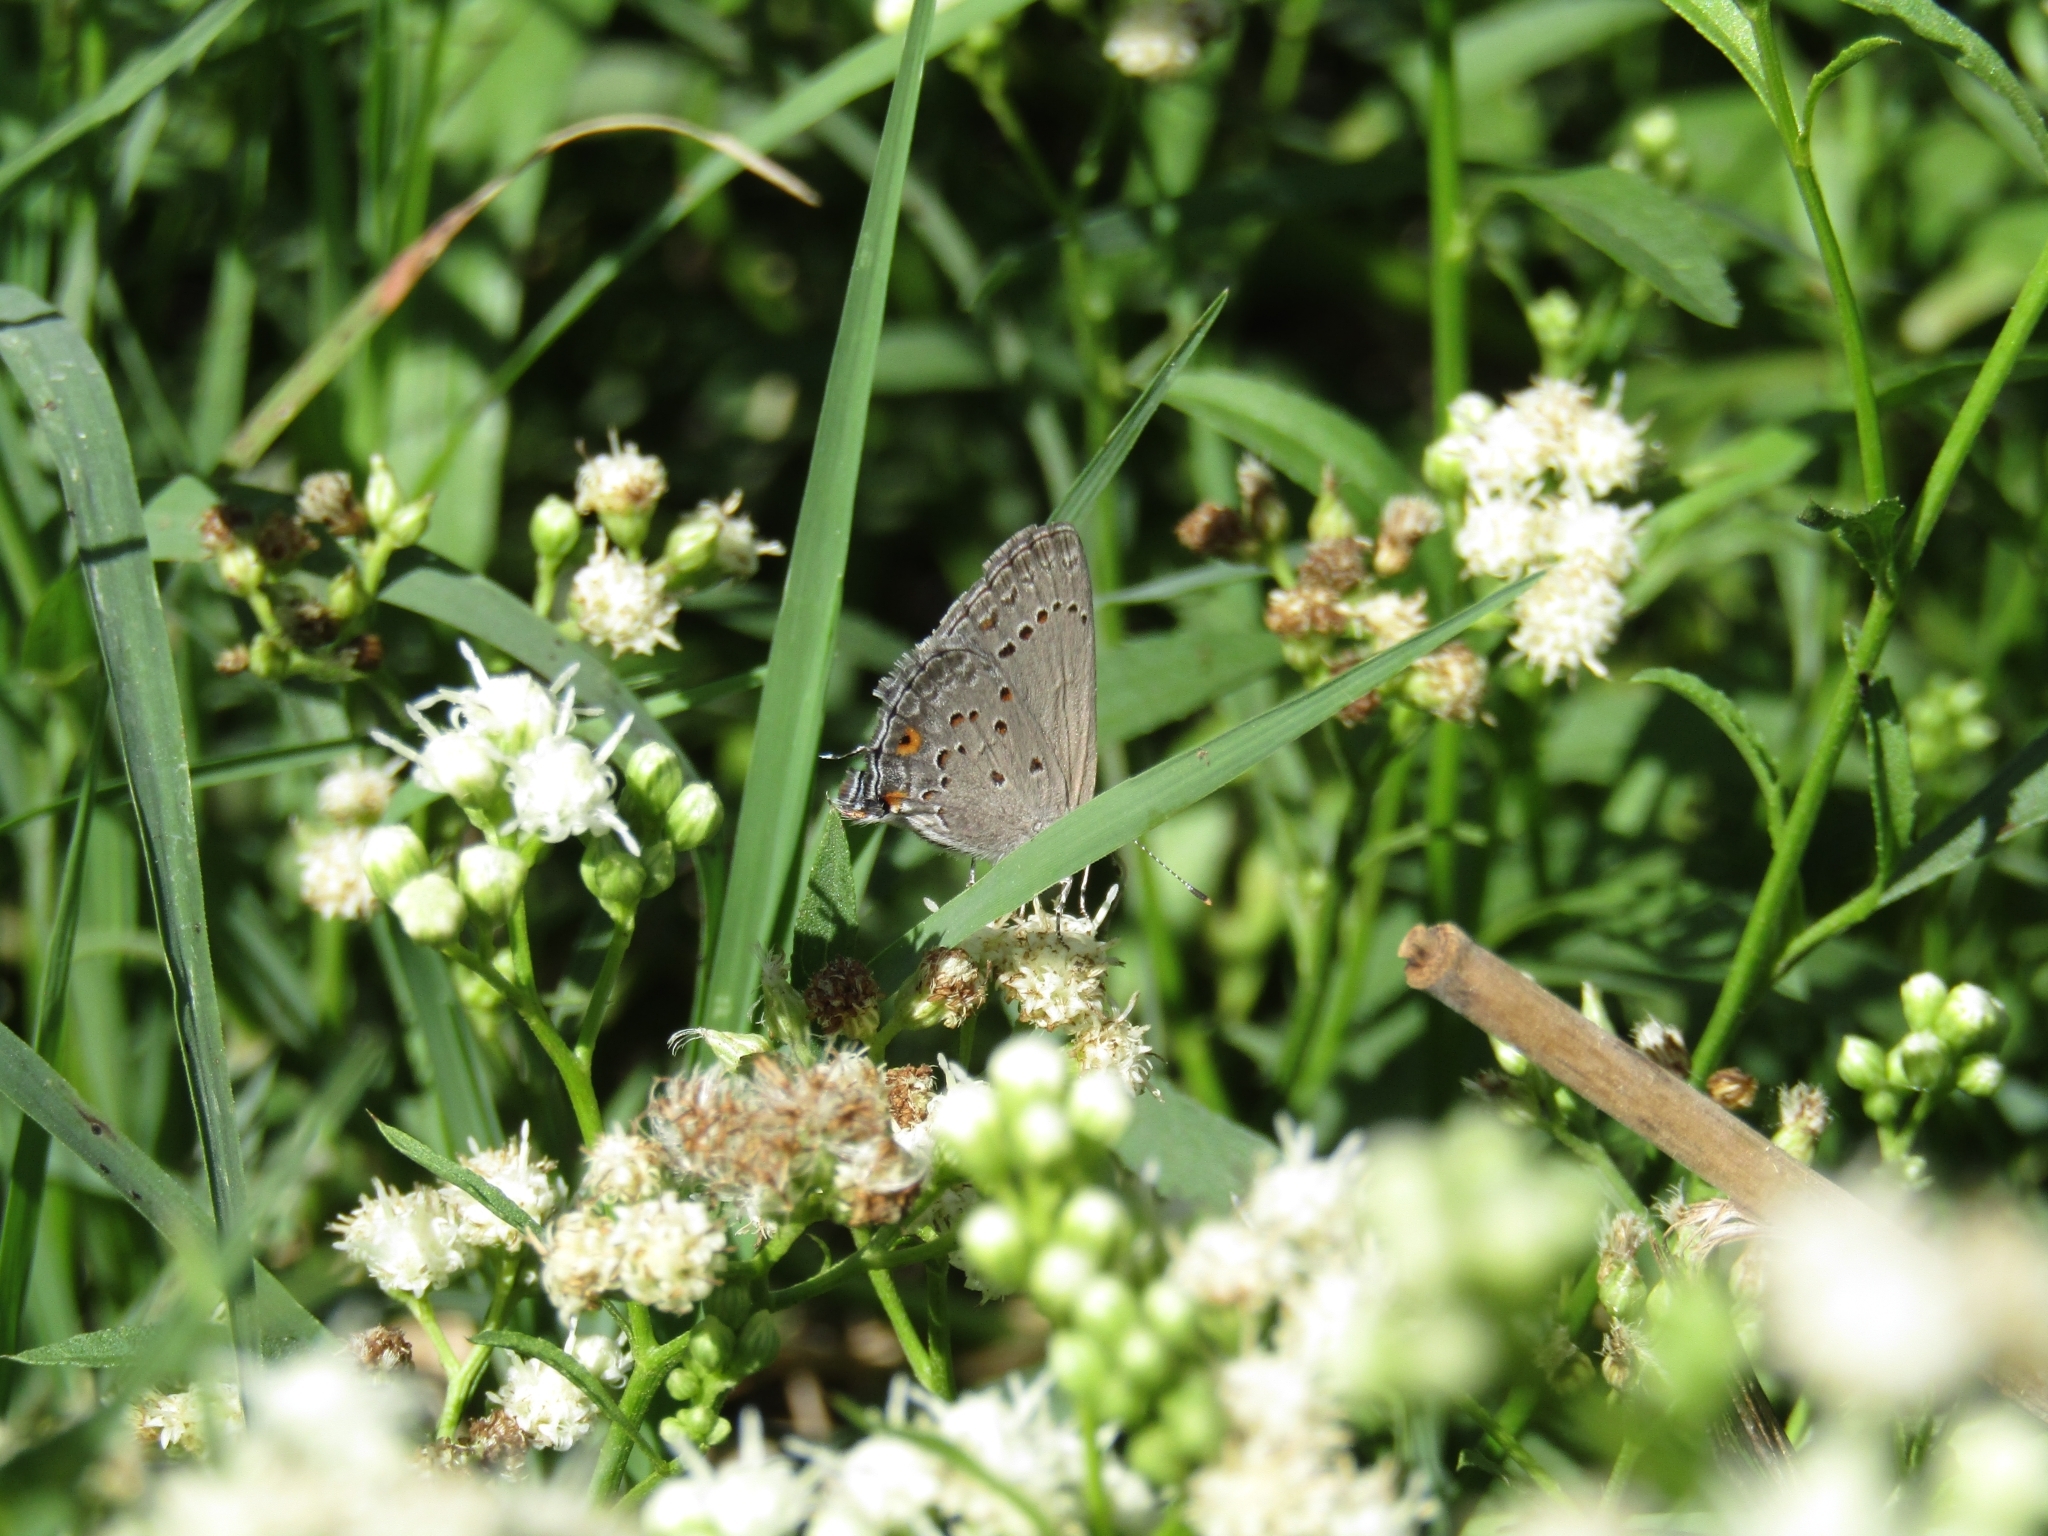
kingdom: Animalia
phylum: Arthropoda
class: Insecta
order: Lepidoptera
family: Lycaenidae
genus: Strymon
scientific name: Strymon eurytulus
